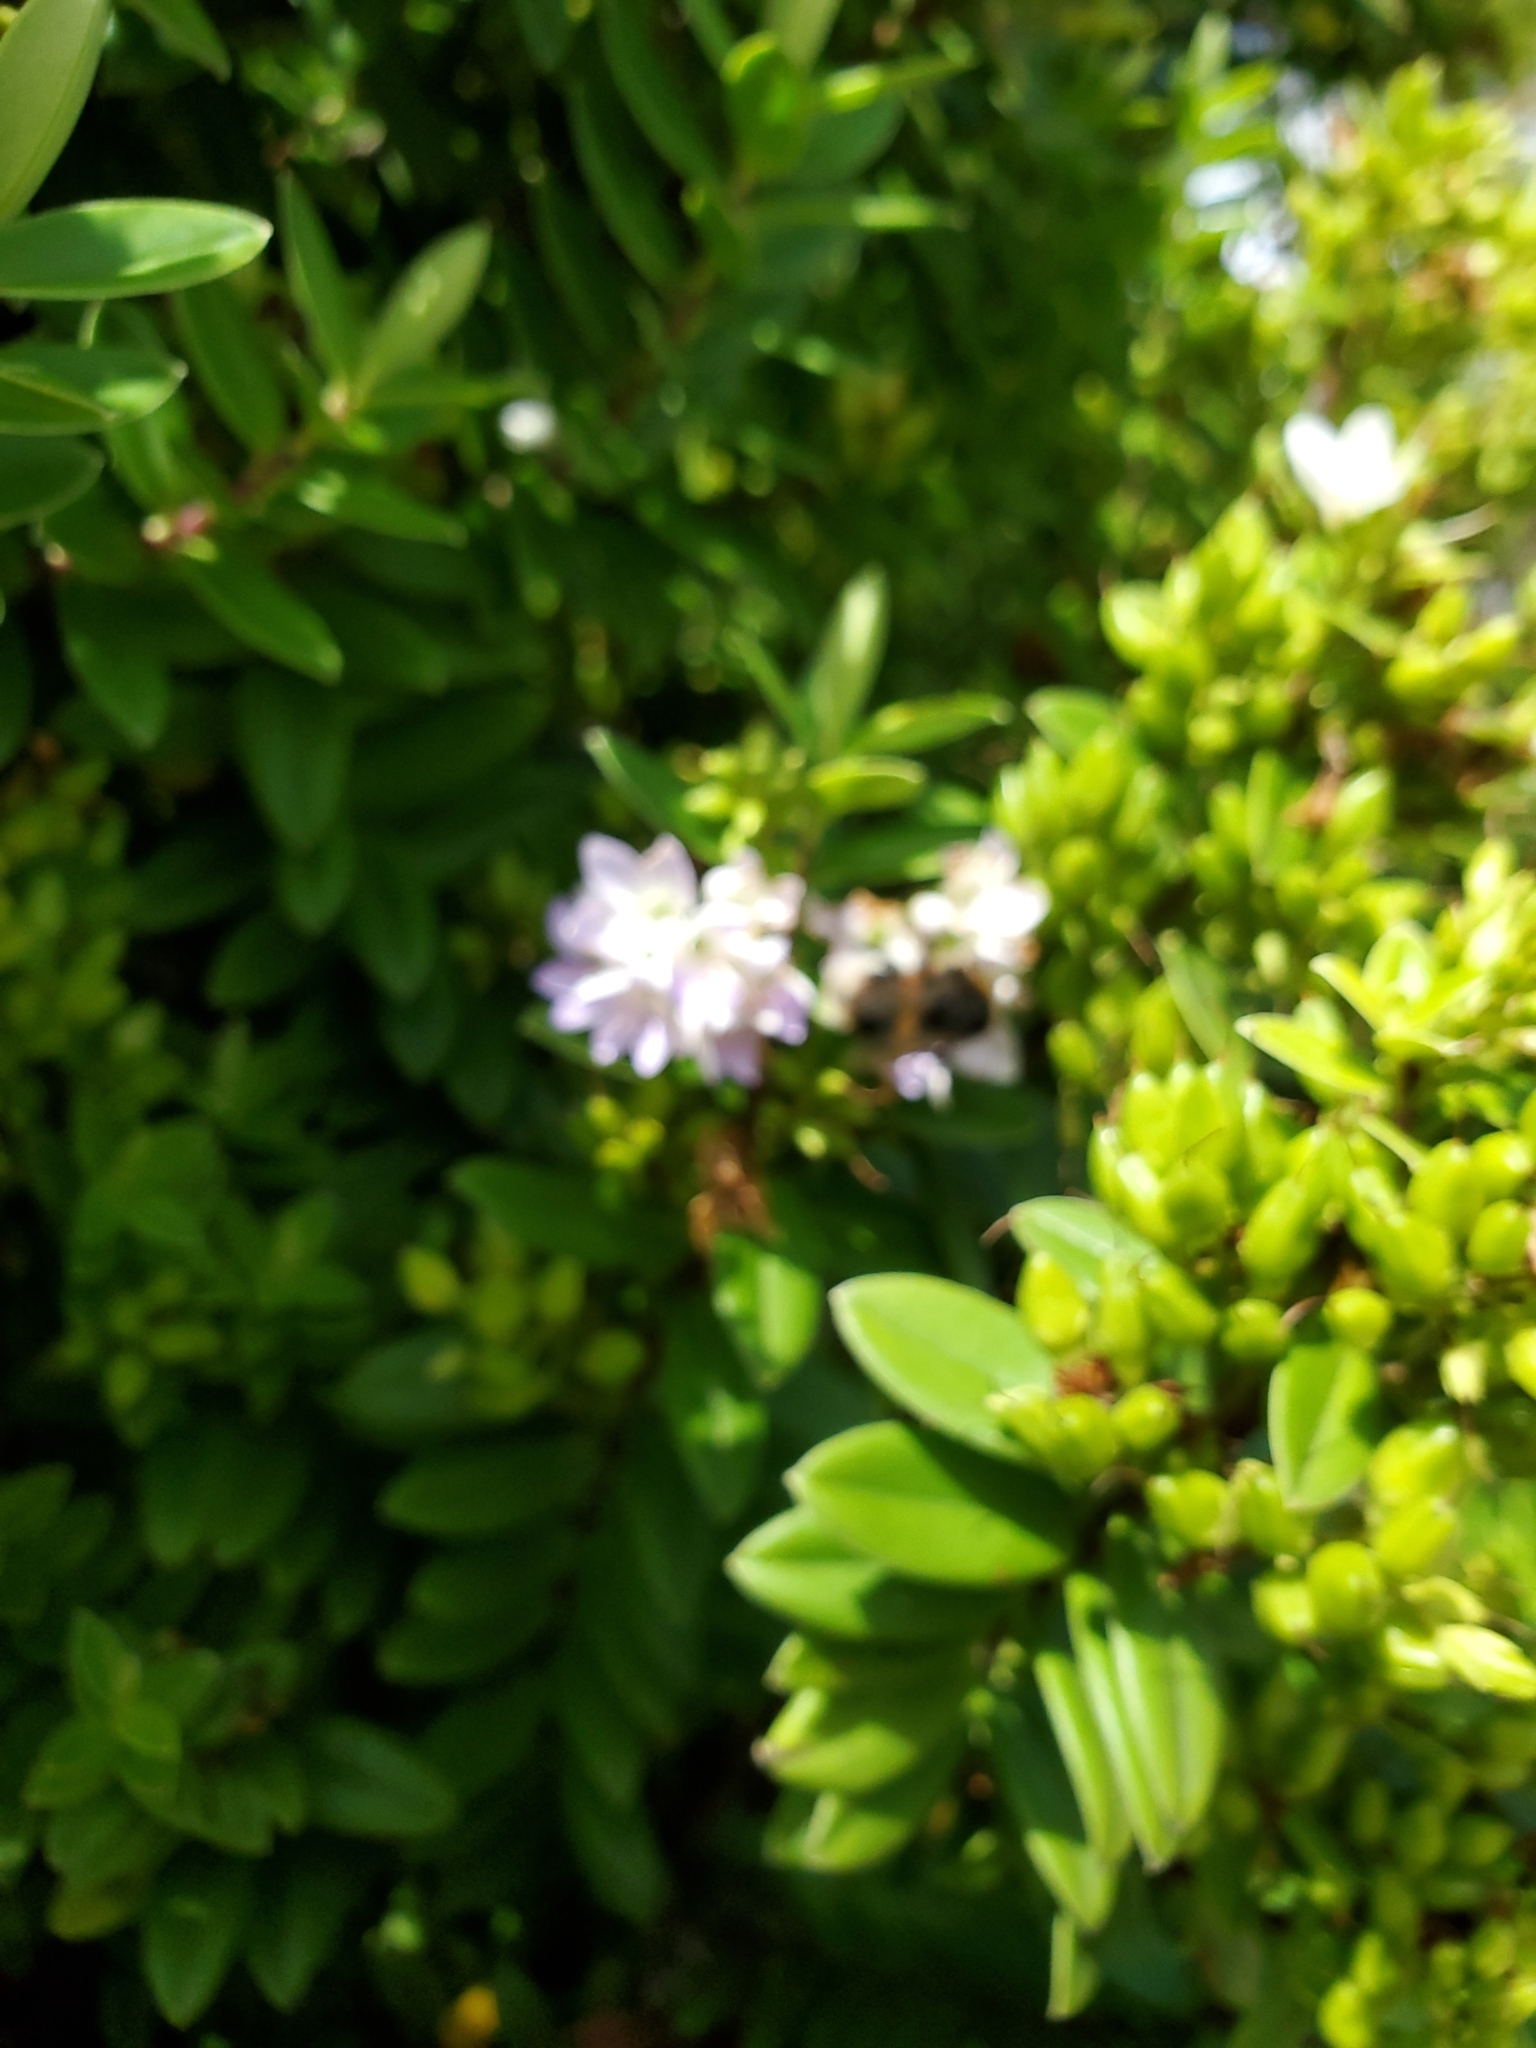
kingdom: Plantae
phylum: Tracheophyta
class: Magnoliopsida
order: Lamiales
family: Plantaginaceae
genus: Veronica
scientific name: Veronica elliptica
